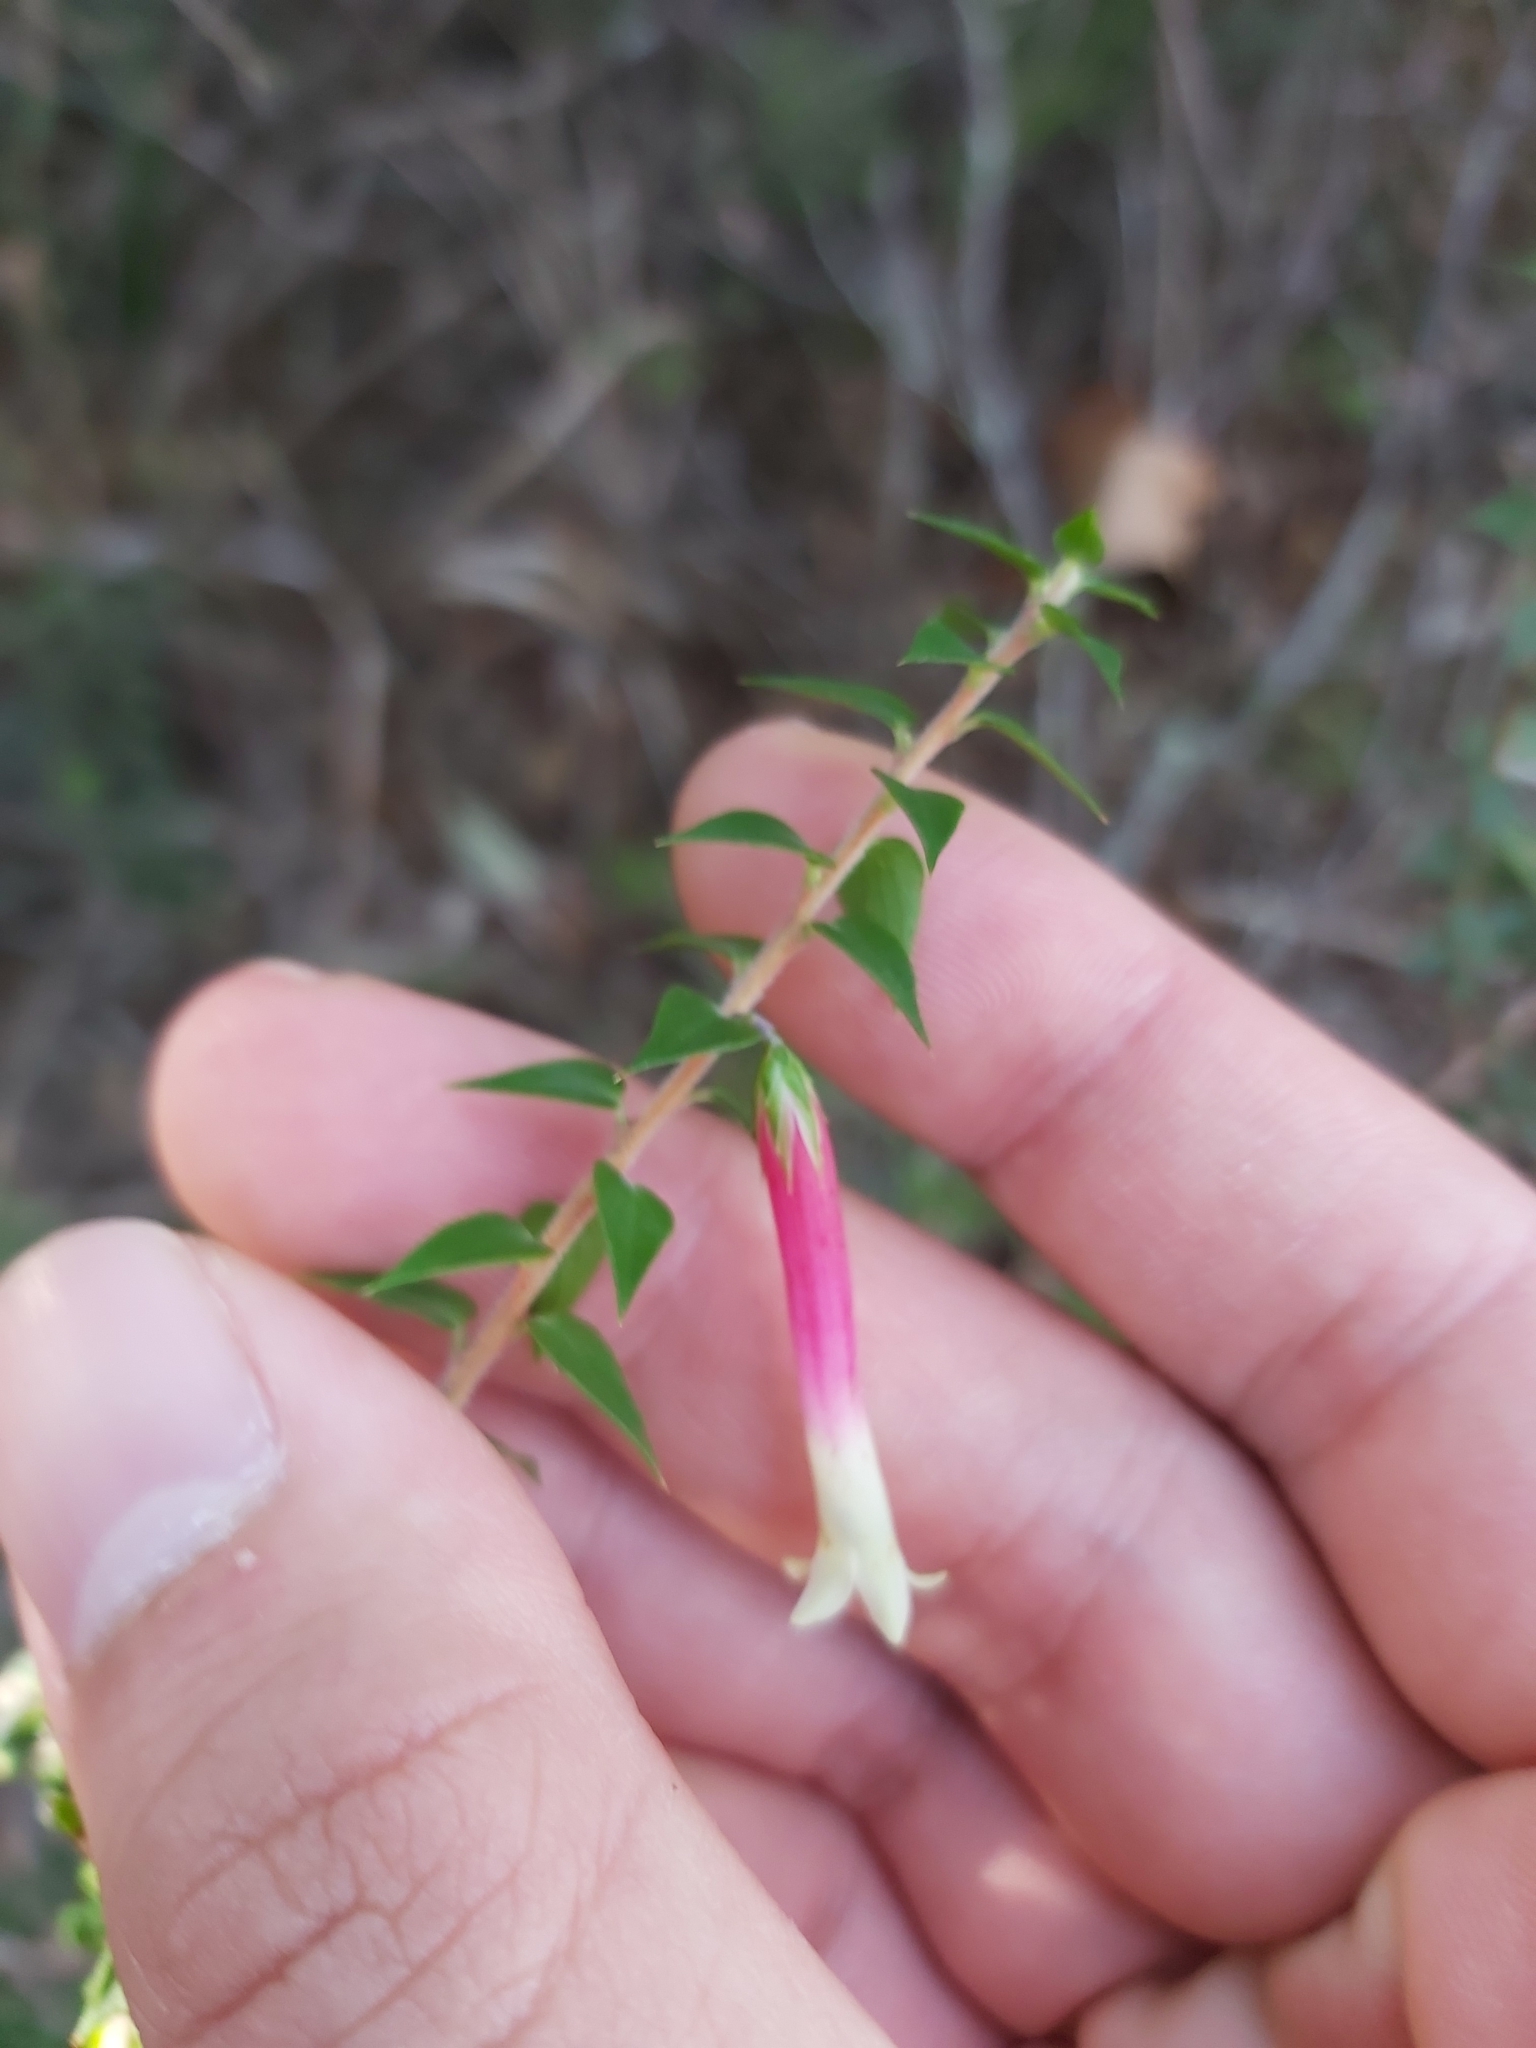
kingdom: Plantae
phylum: Tracheophyta
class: Magnoliopsida
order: Ericales
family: Ericaceae
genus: Epacris
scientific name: Epacris longiflora
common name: Fuchsia-heath
